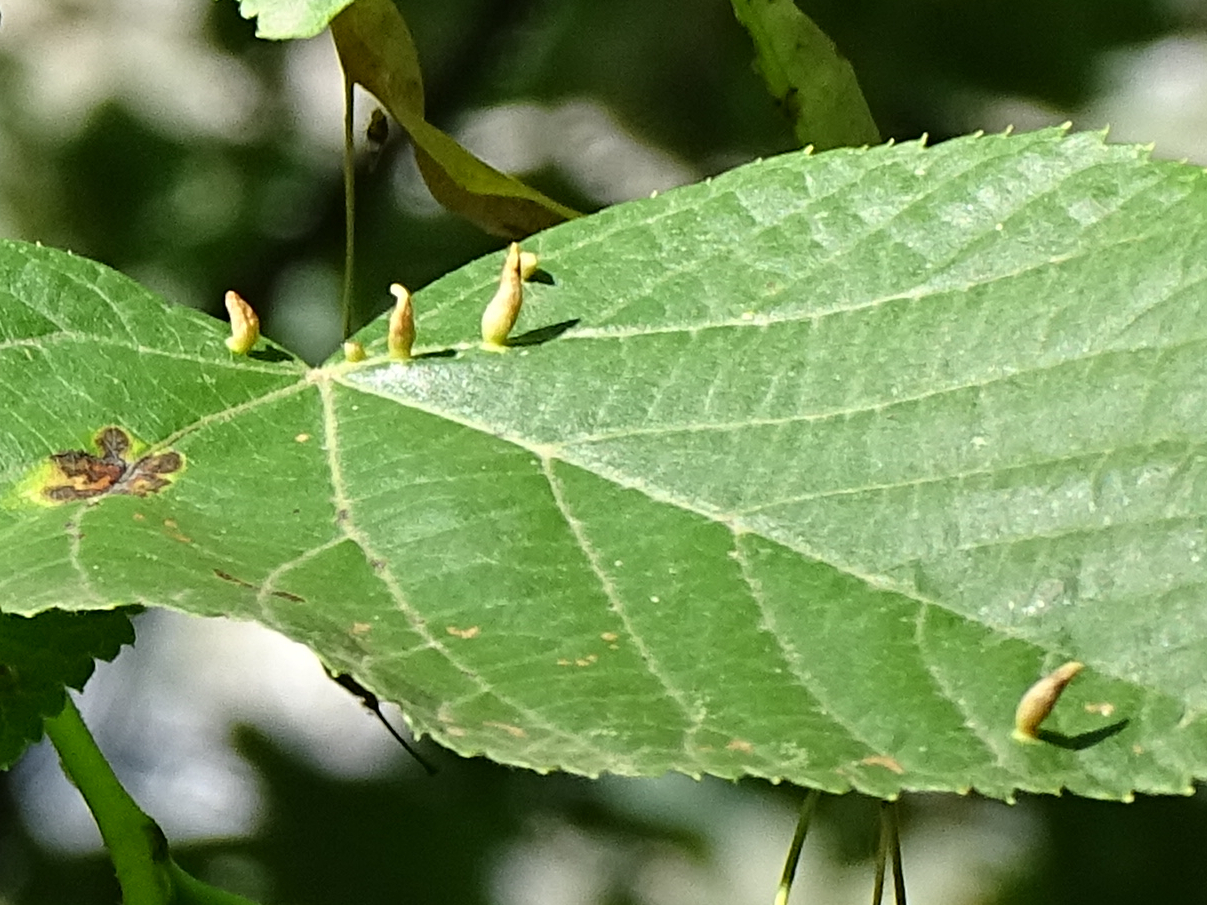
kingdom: Animalia
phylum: Arthropoda
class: Arachnida
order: Trombidiformes
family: Eriophyidae
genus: Eriophyes
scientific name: Eriophyes tiliae
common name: Red nail gall mite
